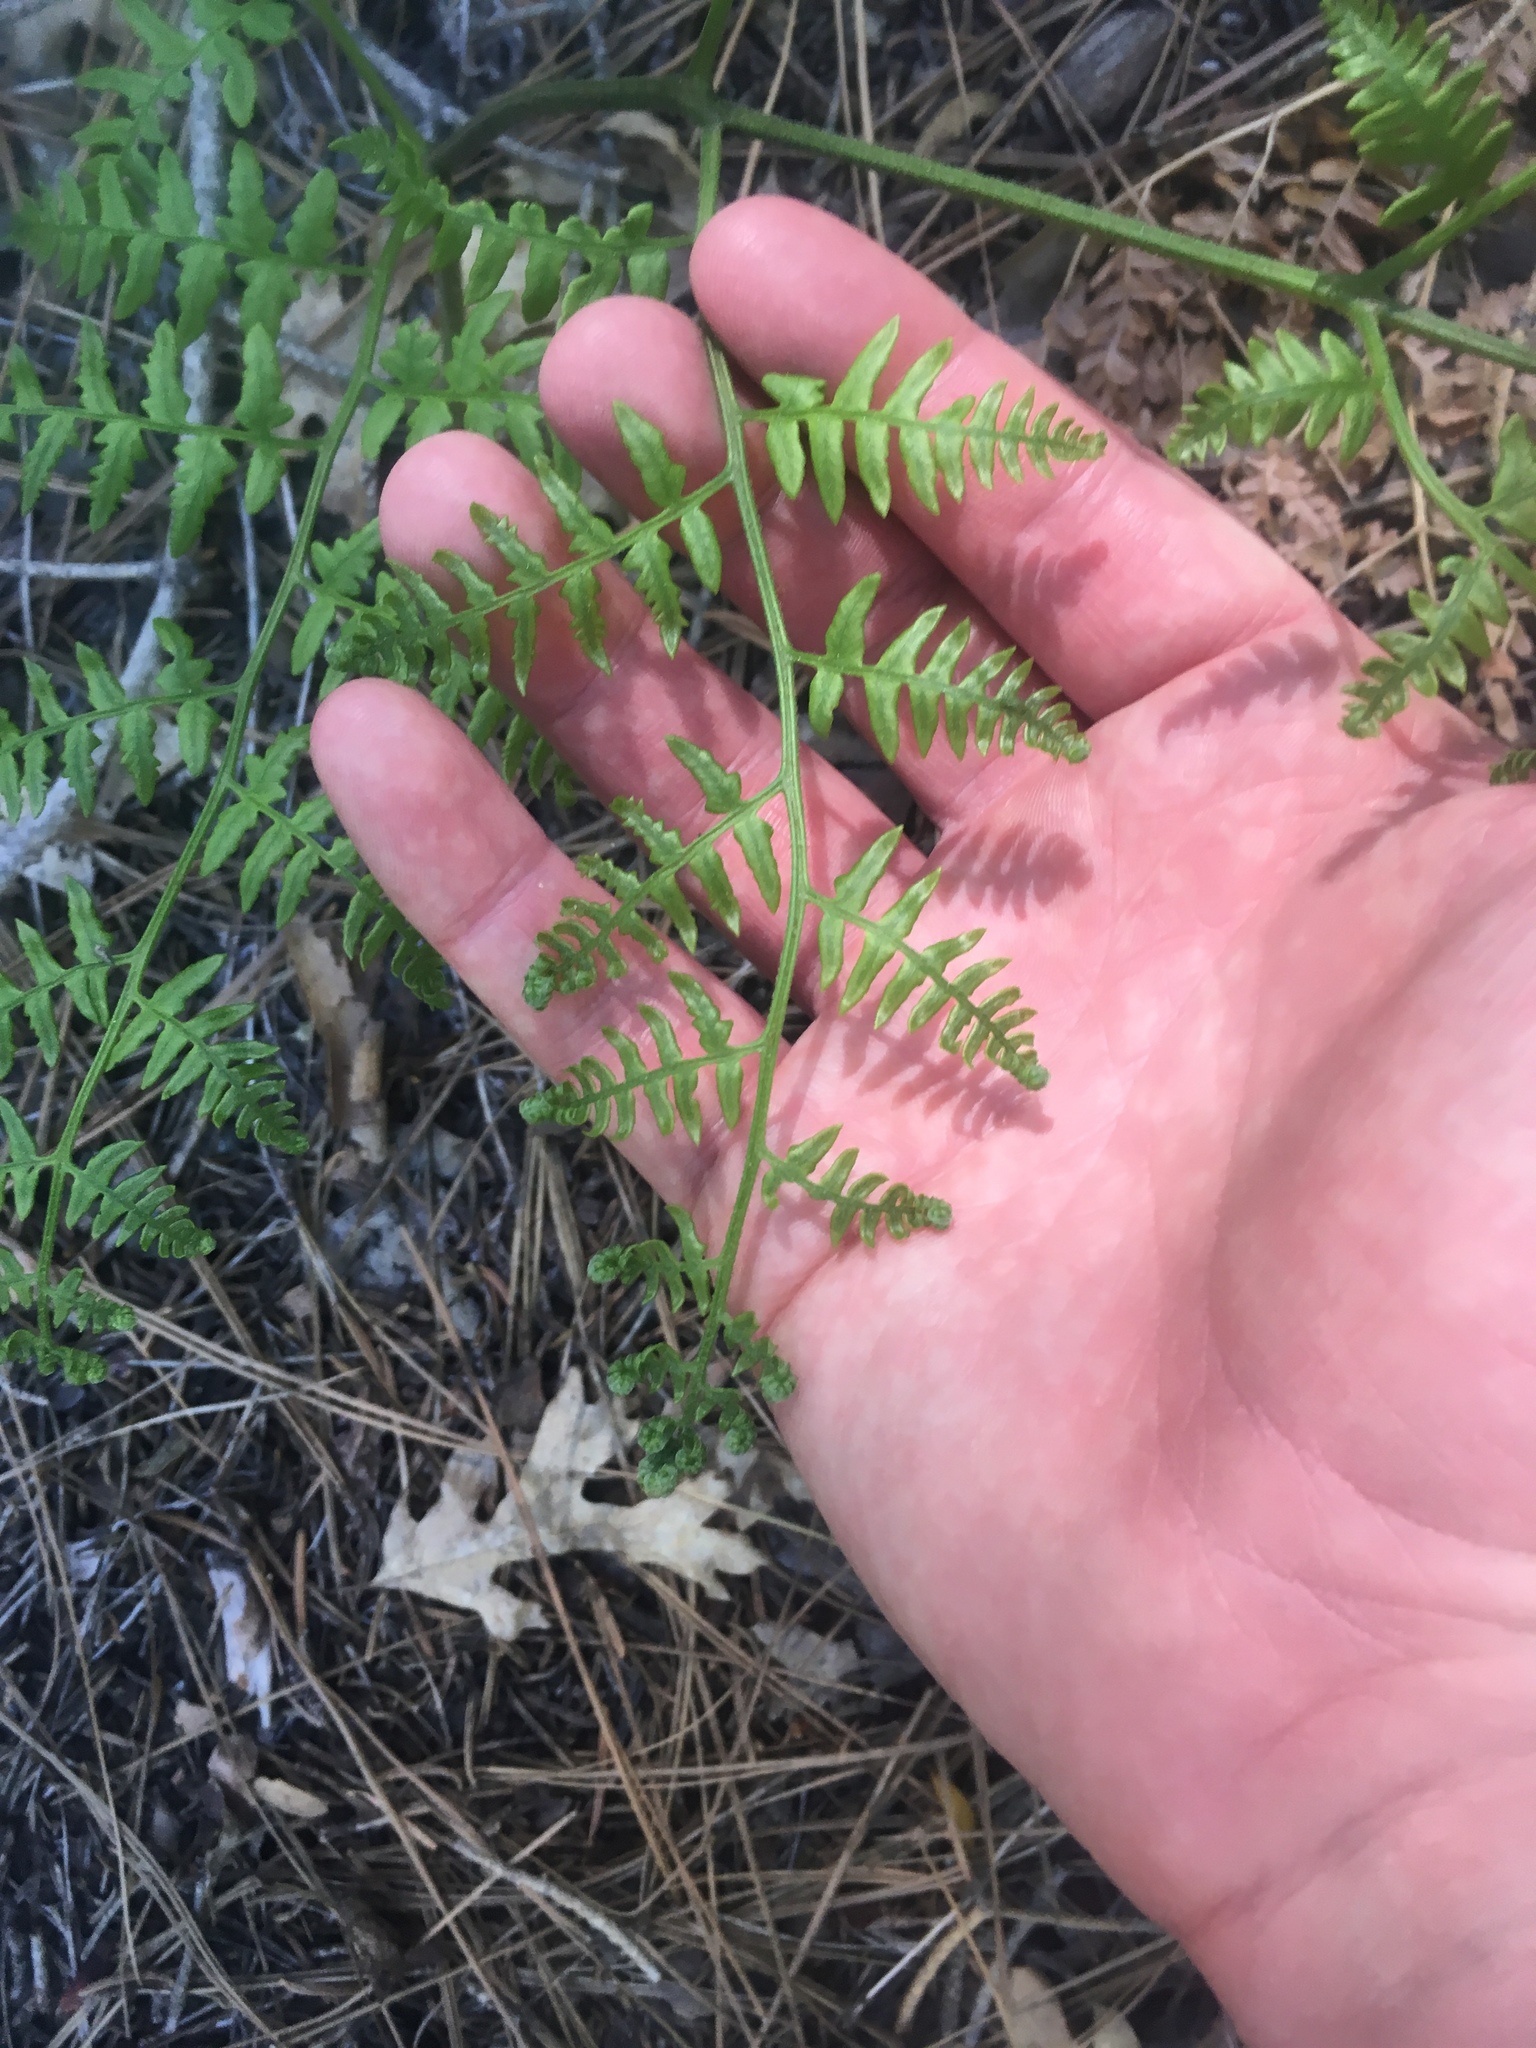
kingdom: Plantae
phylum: Tracheophyta
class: Polypodiopsida
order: Polypodiales
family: Dennstaedtiaceae
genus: Pteridium
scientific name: Pteridium aquilinum
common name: Bracken
